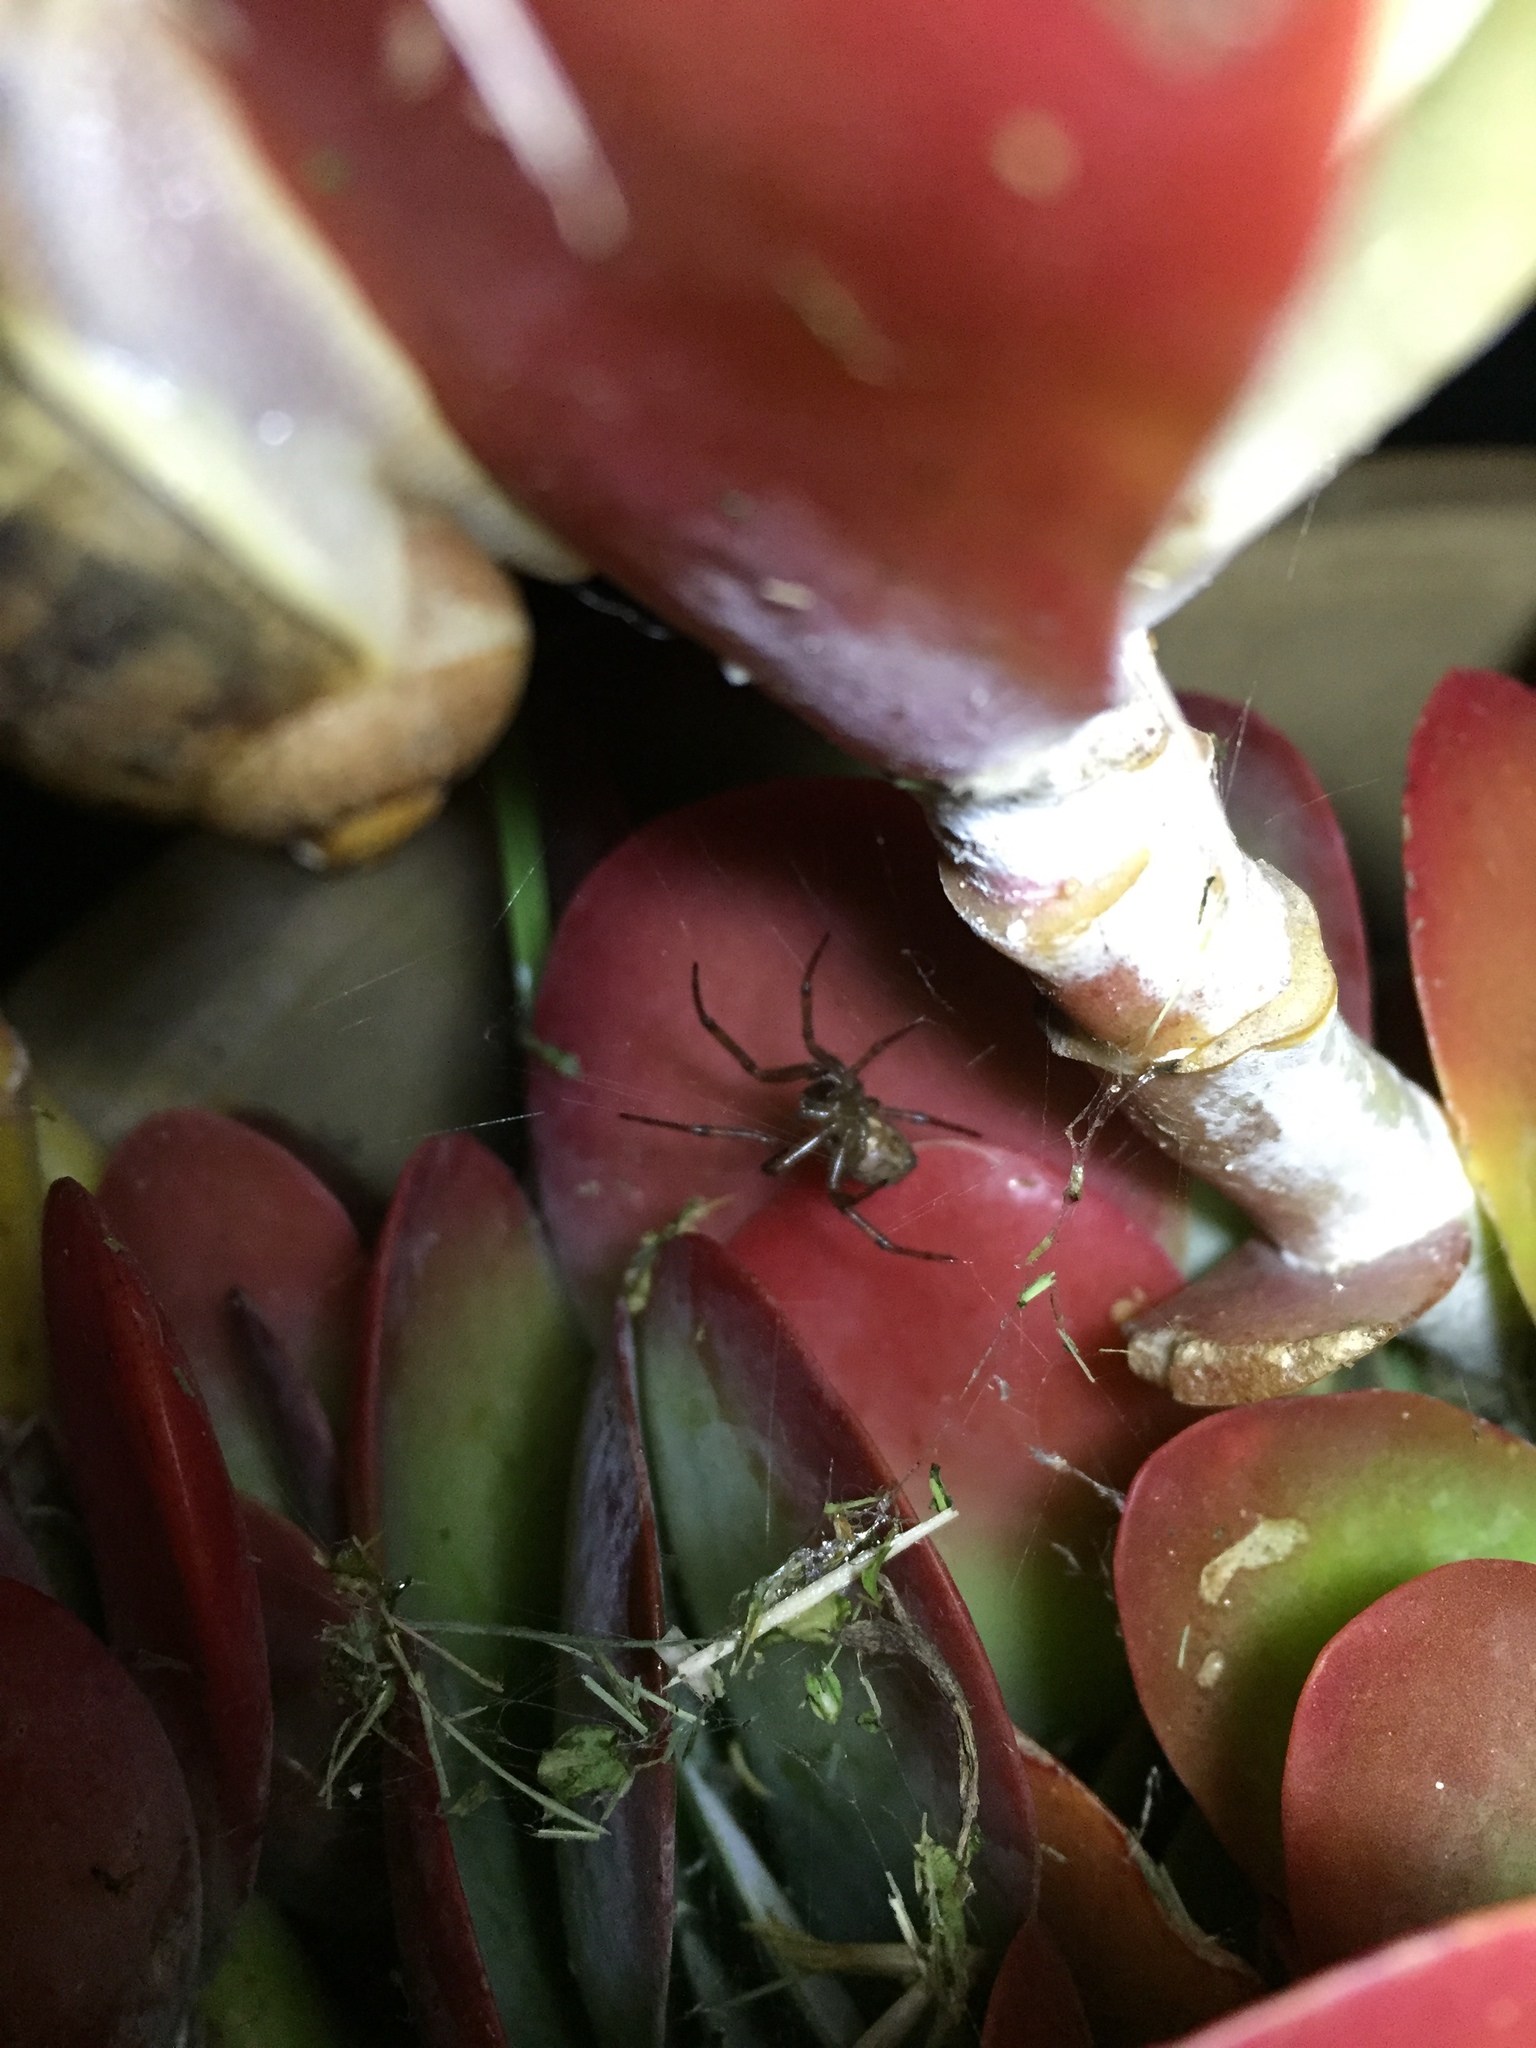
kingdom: Animalia
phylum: Arthropoda
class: Arachnida
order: Araneae
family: Theridiidae
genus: Steatoda
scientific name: Steatoda nobilis
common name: Cobweb weaver
